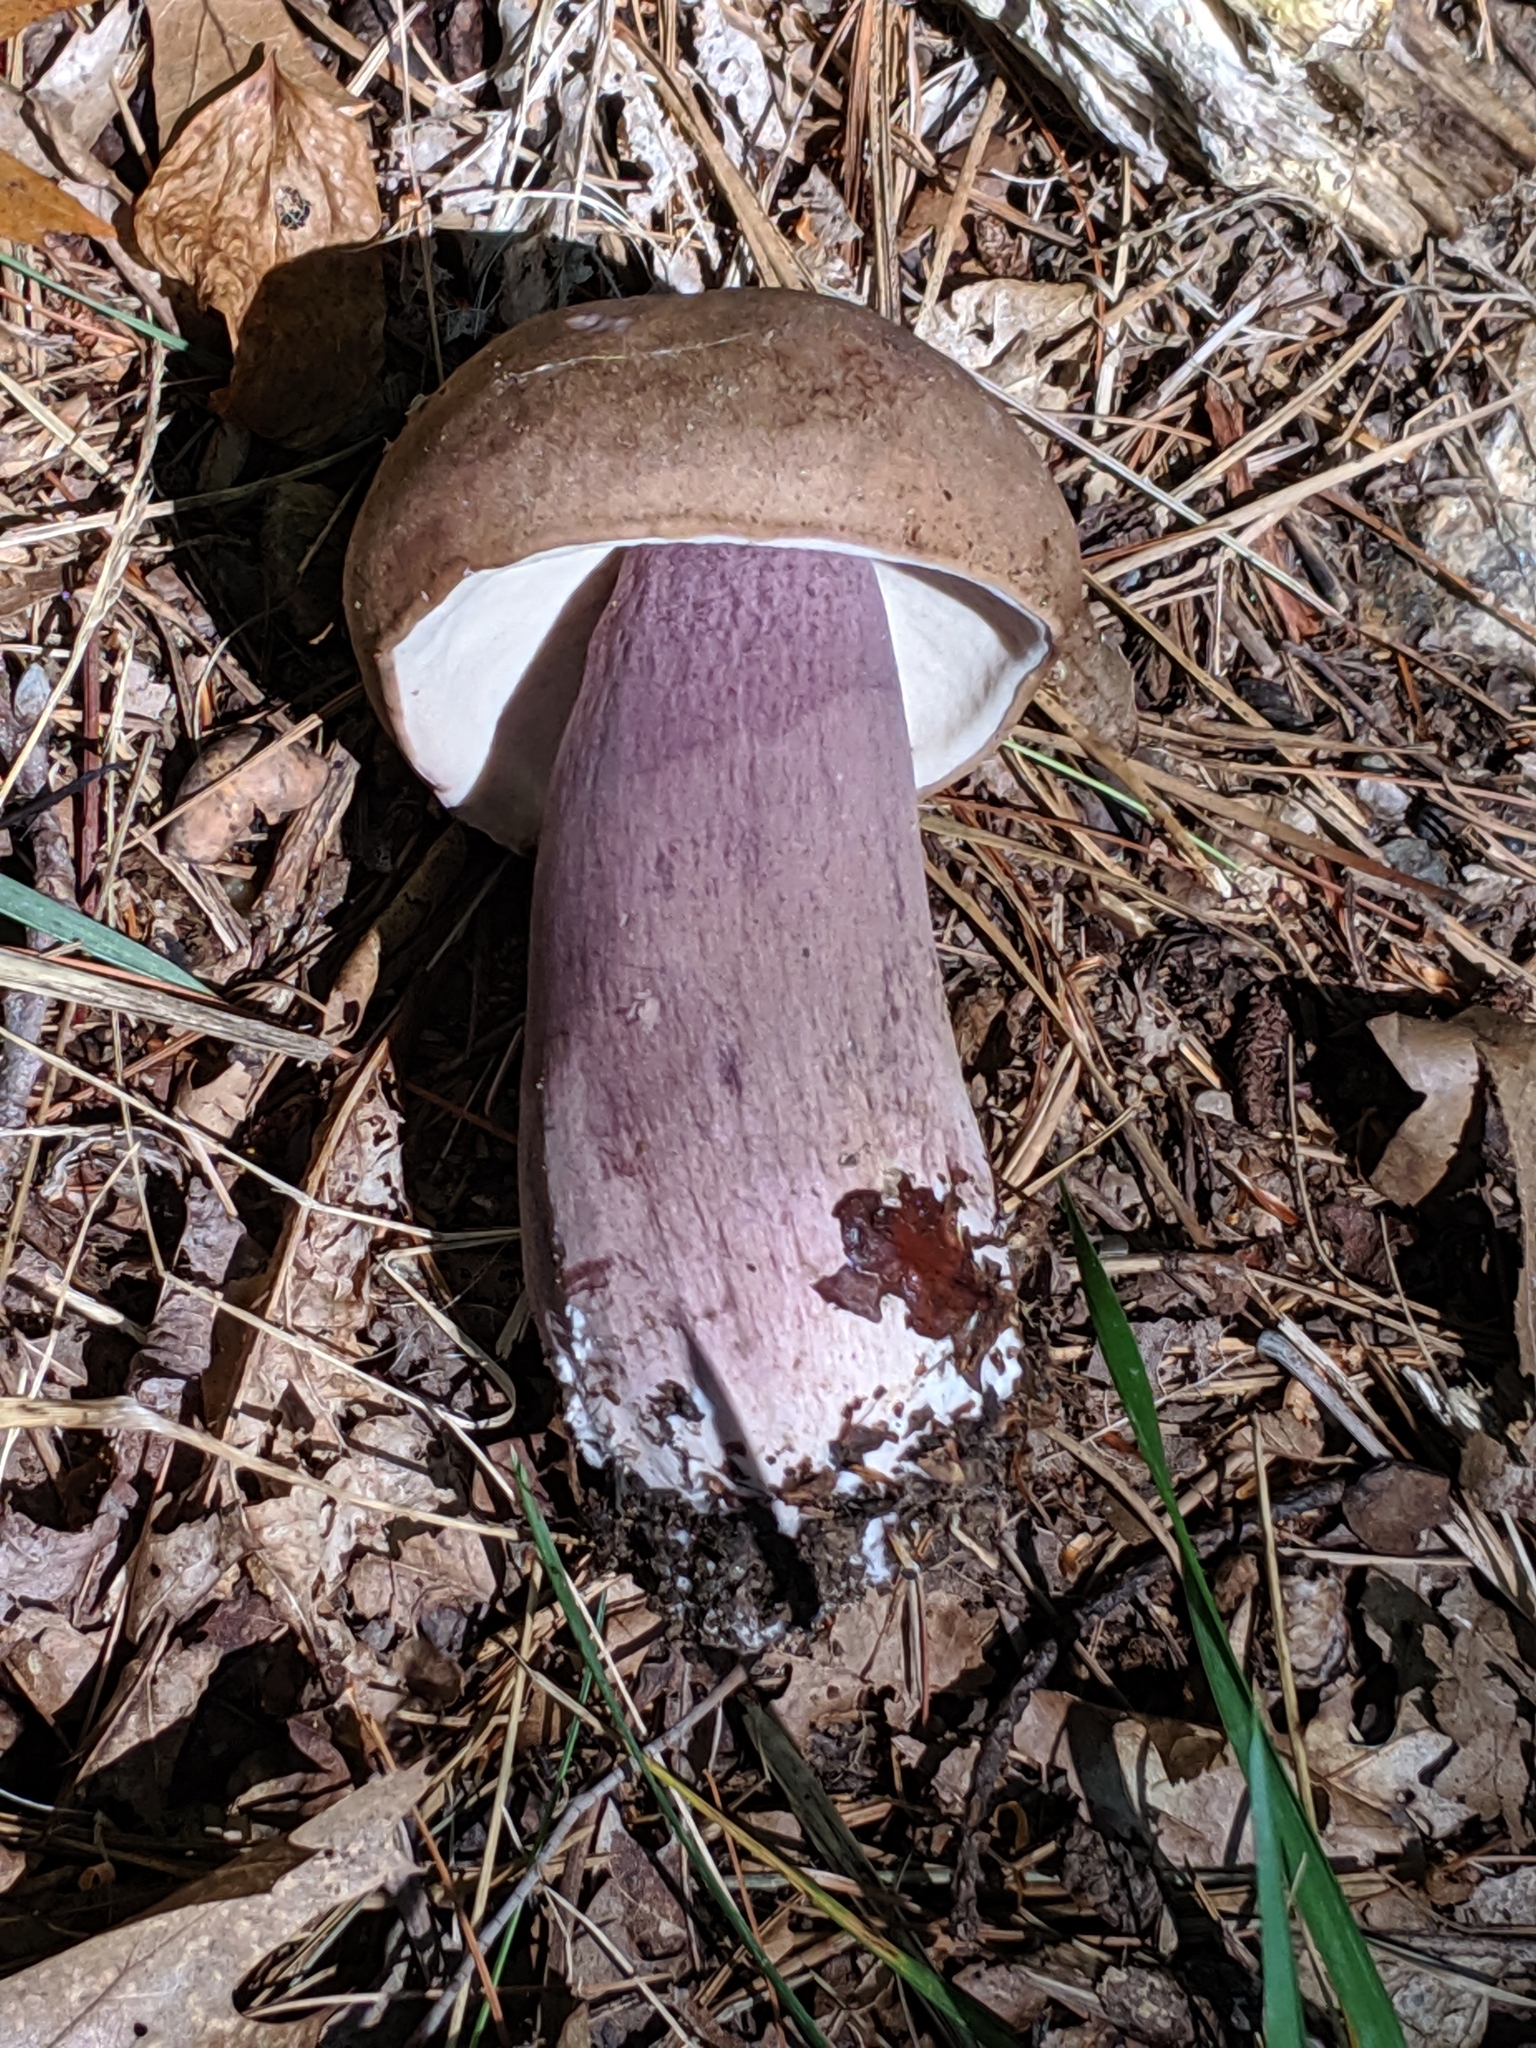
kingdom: Fungi
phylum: Basidiomycota
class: Agaricomycetes
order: Boletales
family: Boletaceae
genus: Tylopilus
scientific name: Tylopilus plumbeoviolaceus
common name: Violet gray bolete
